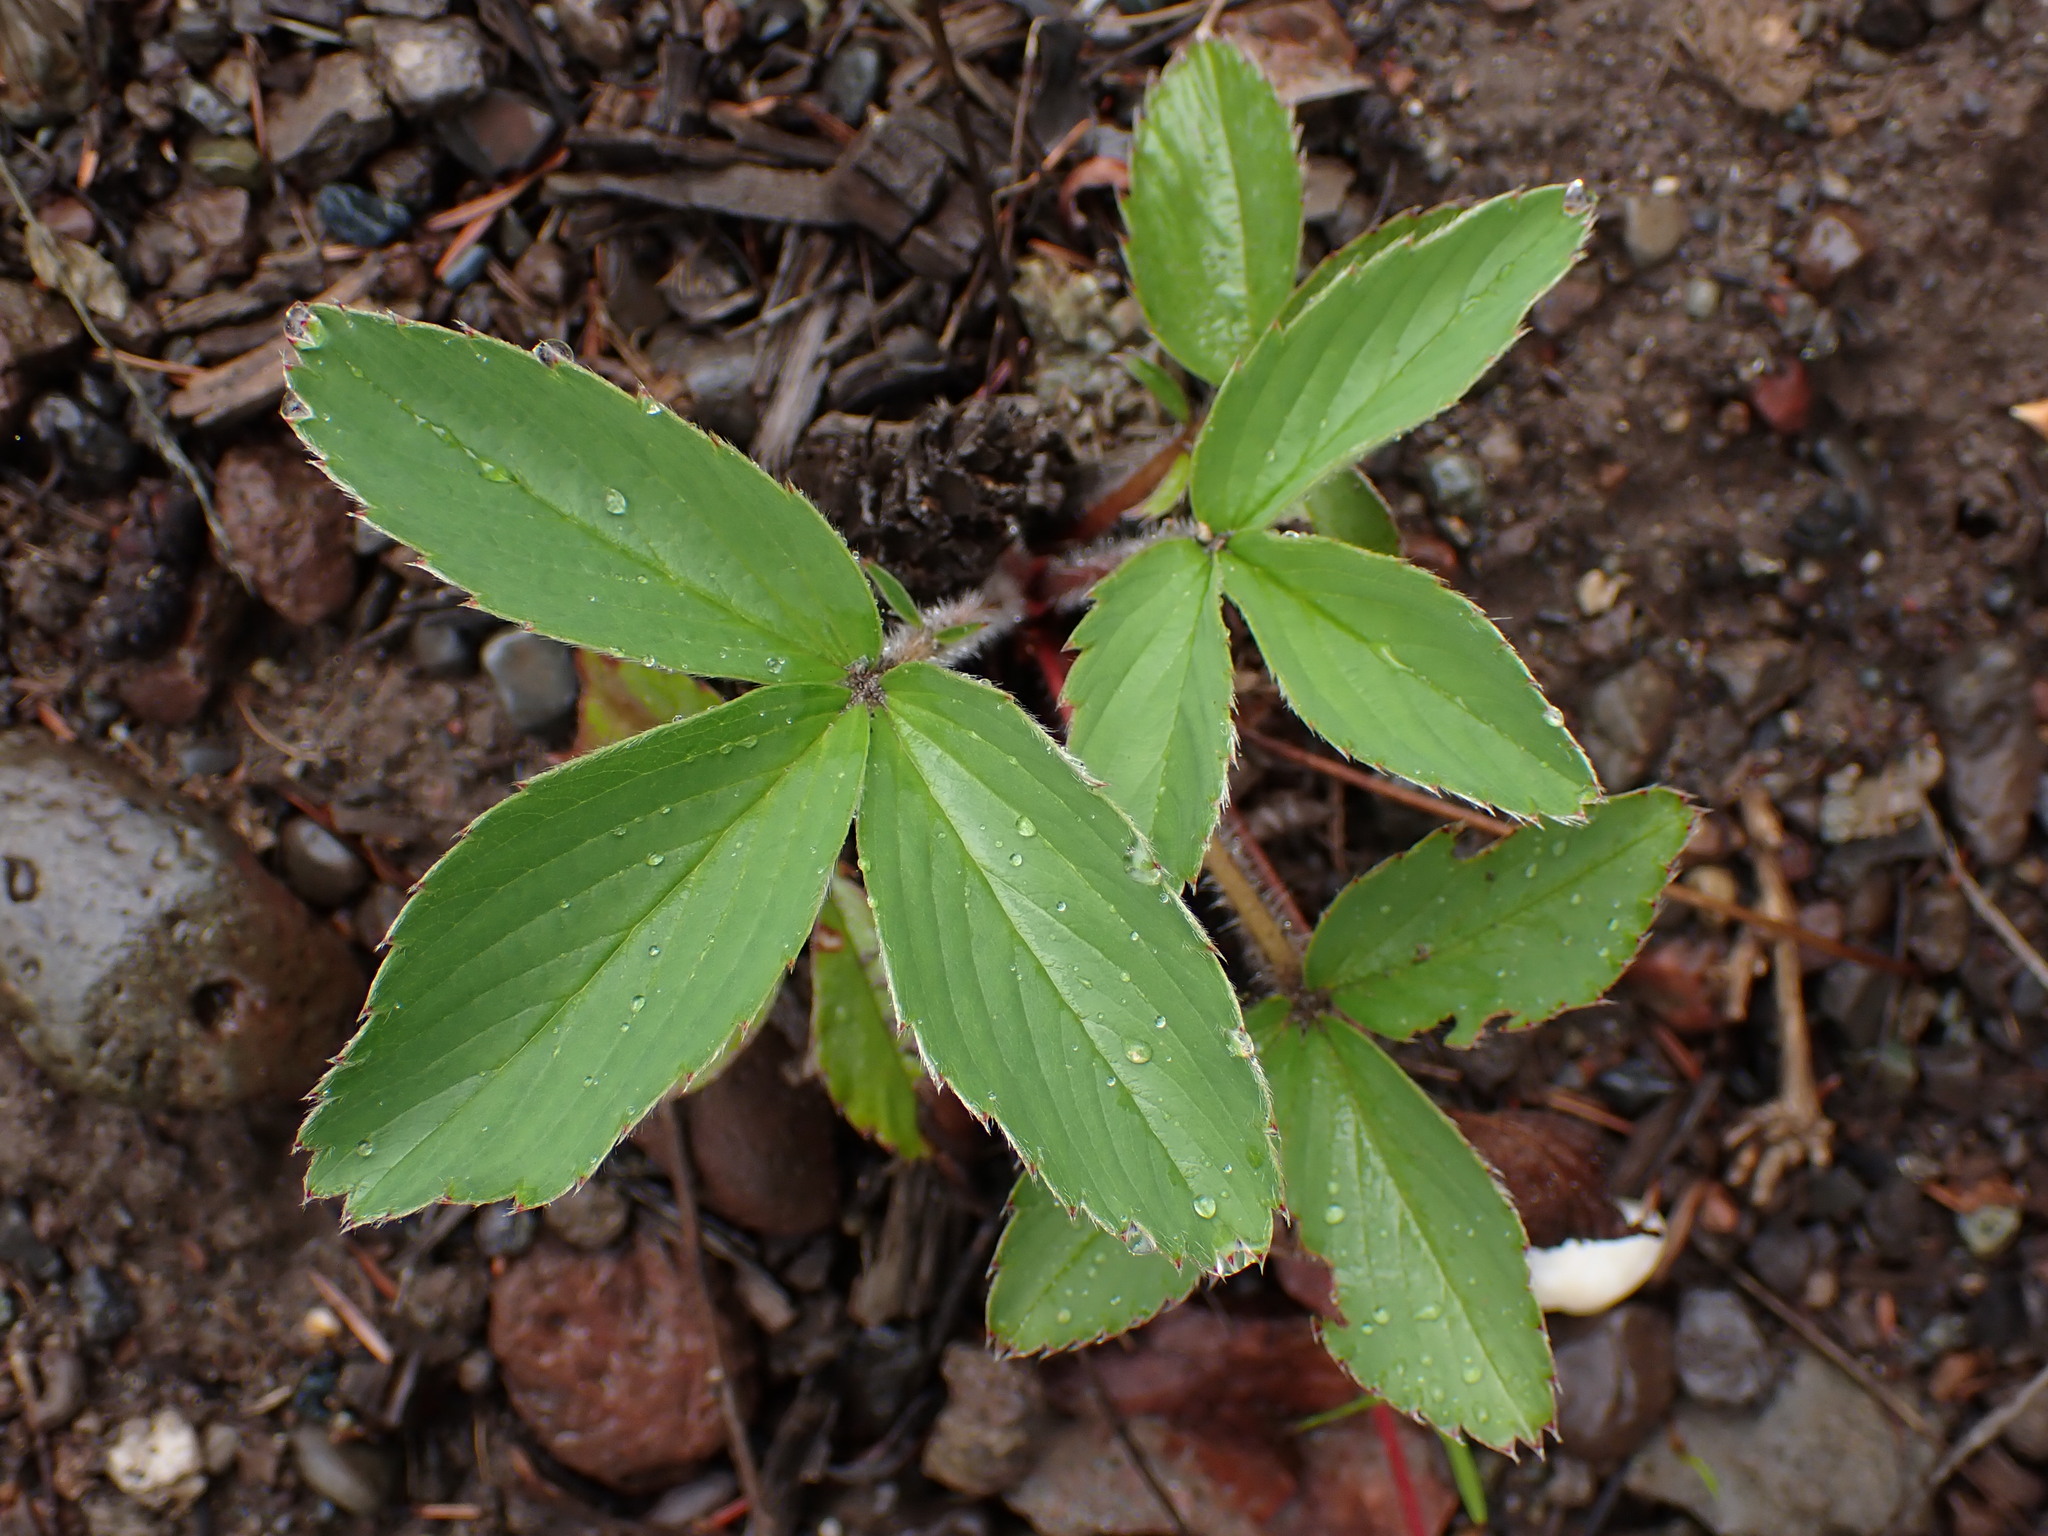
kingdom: Plantae
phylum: Tracheophyta
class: Magnoliopsida
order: Rosales
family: Rosaceae
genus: Fragaria
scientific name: Fragaria virginiana
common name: Thickleaved wild strawberry
